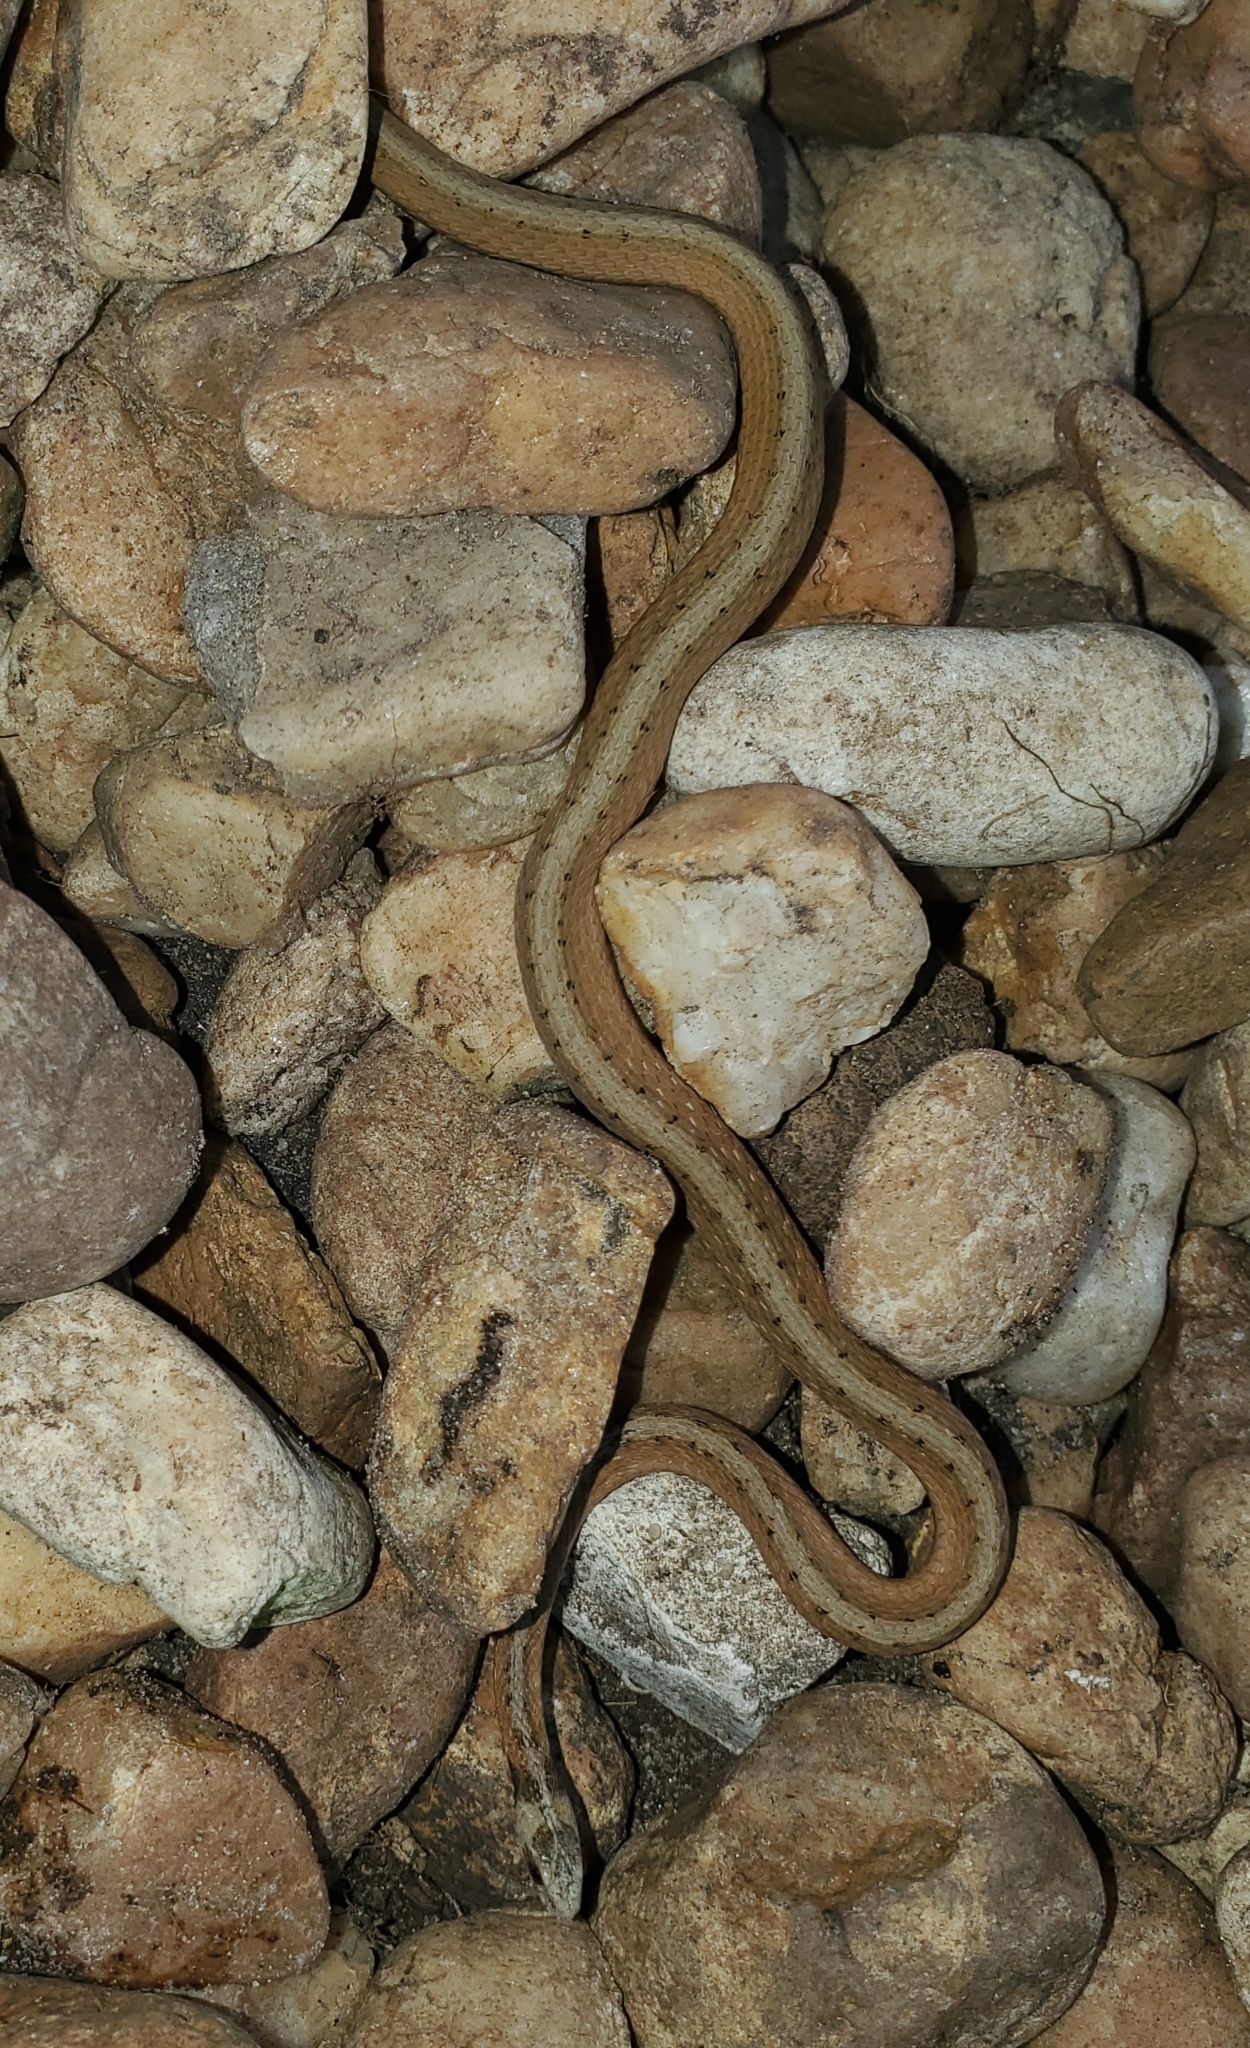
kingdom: Animalia
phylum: Chordata
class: Squamata
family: Colubridae
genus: Storeria
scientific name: Storeria victa
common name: Florida brown snake
